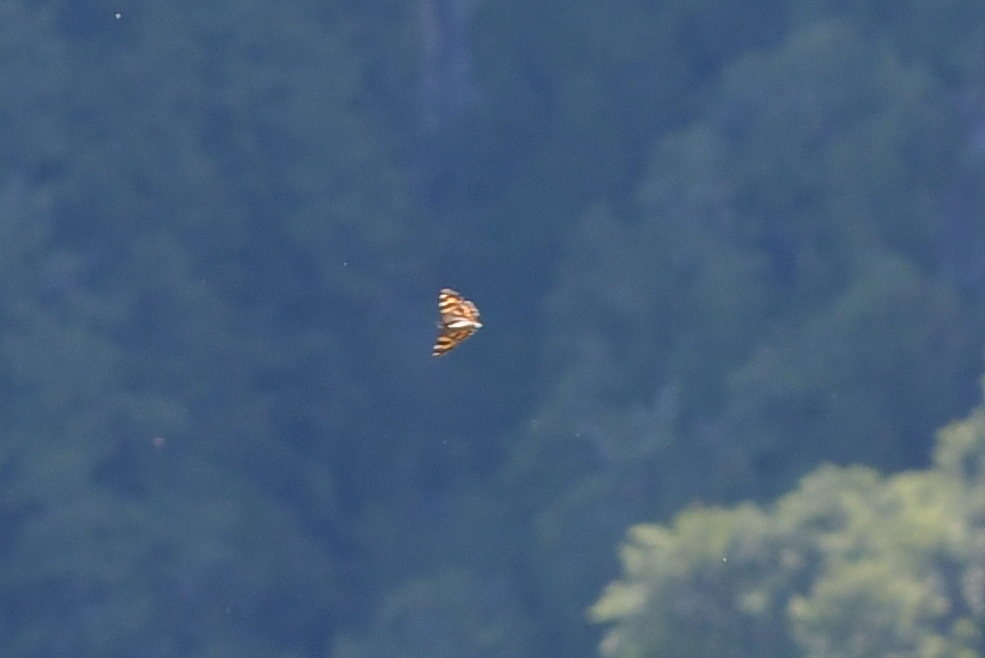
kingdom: Animalia
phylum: Arthropoda
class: Insecta
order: Lepidoptera
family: Nymphalidae
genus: Dodonidia
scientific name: Dodonidia helmsii
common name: Helm's butterfly
